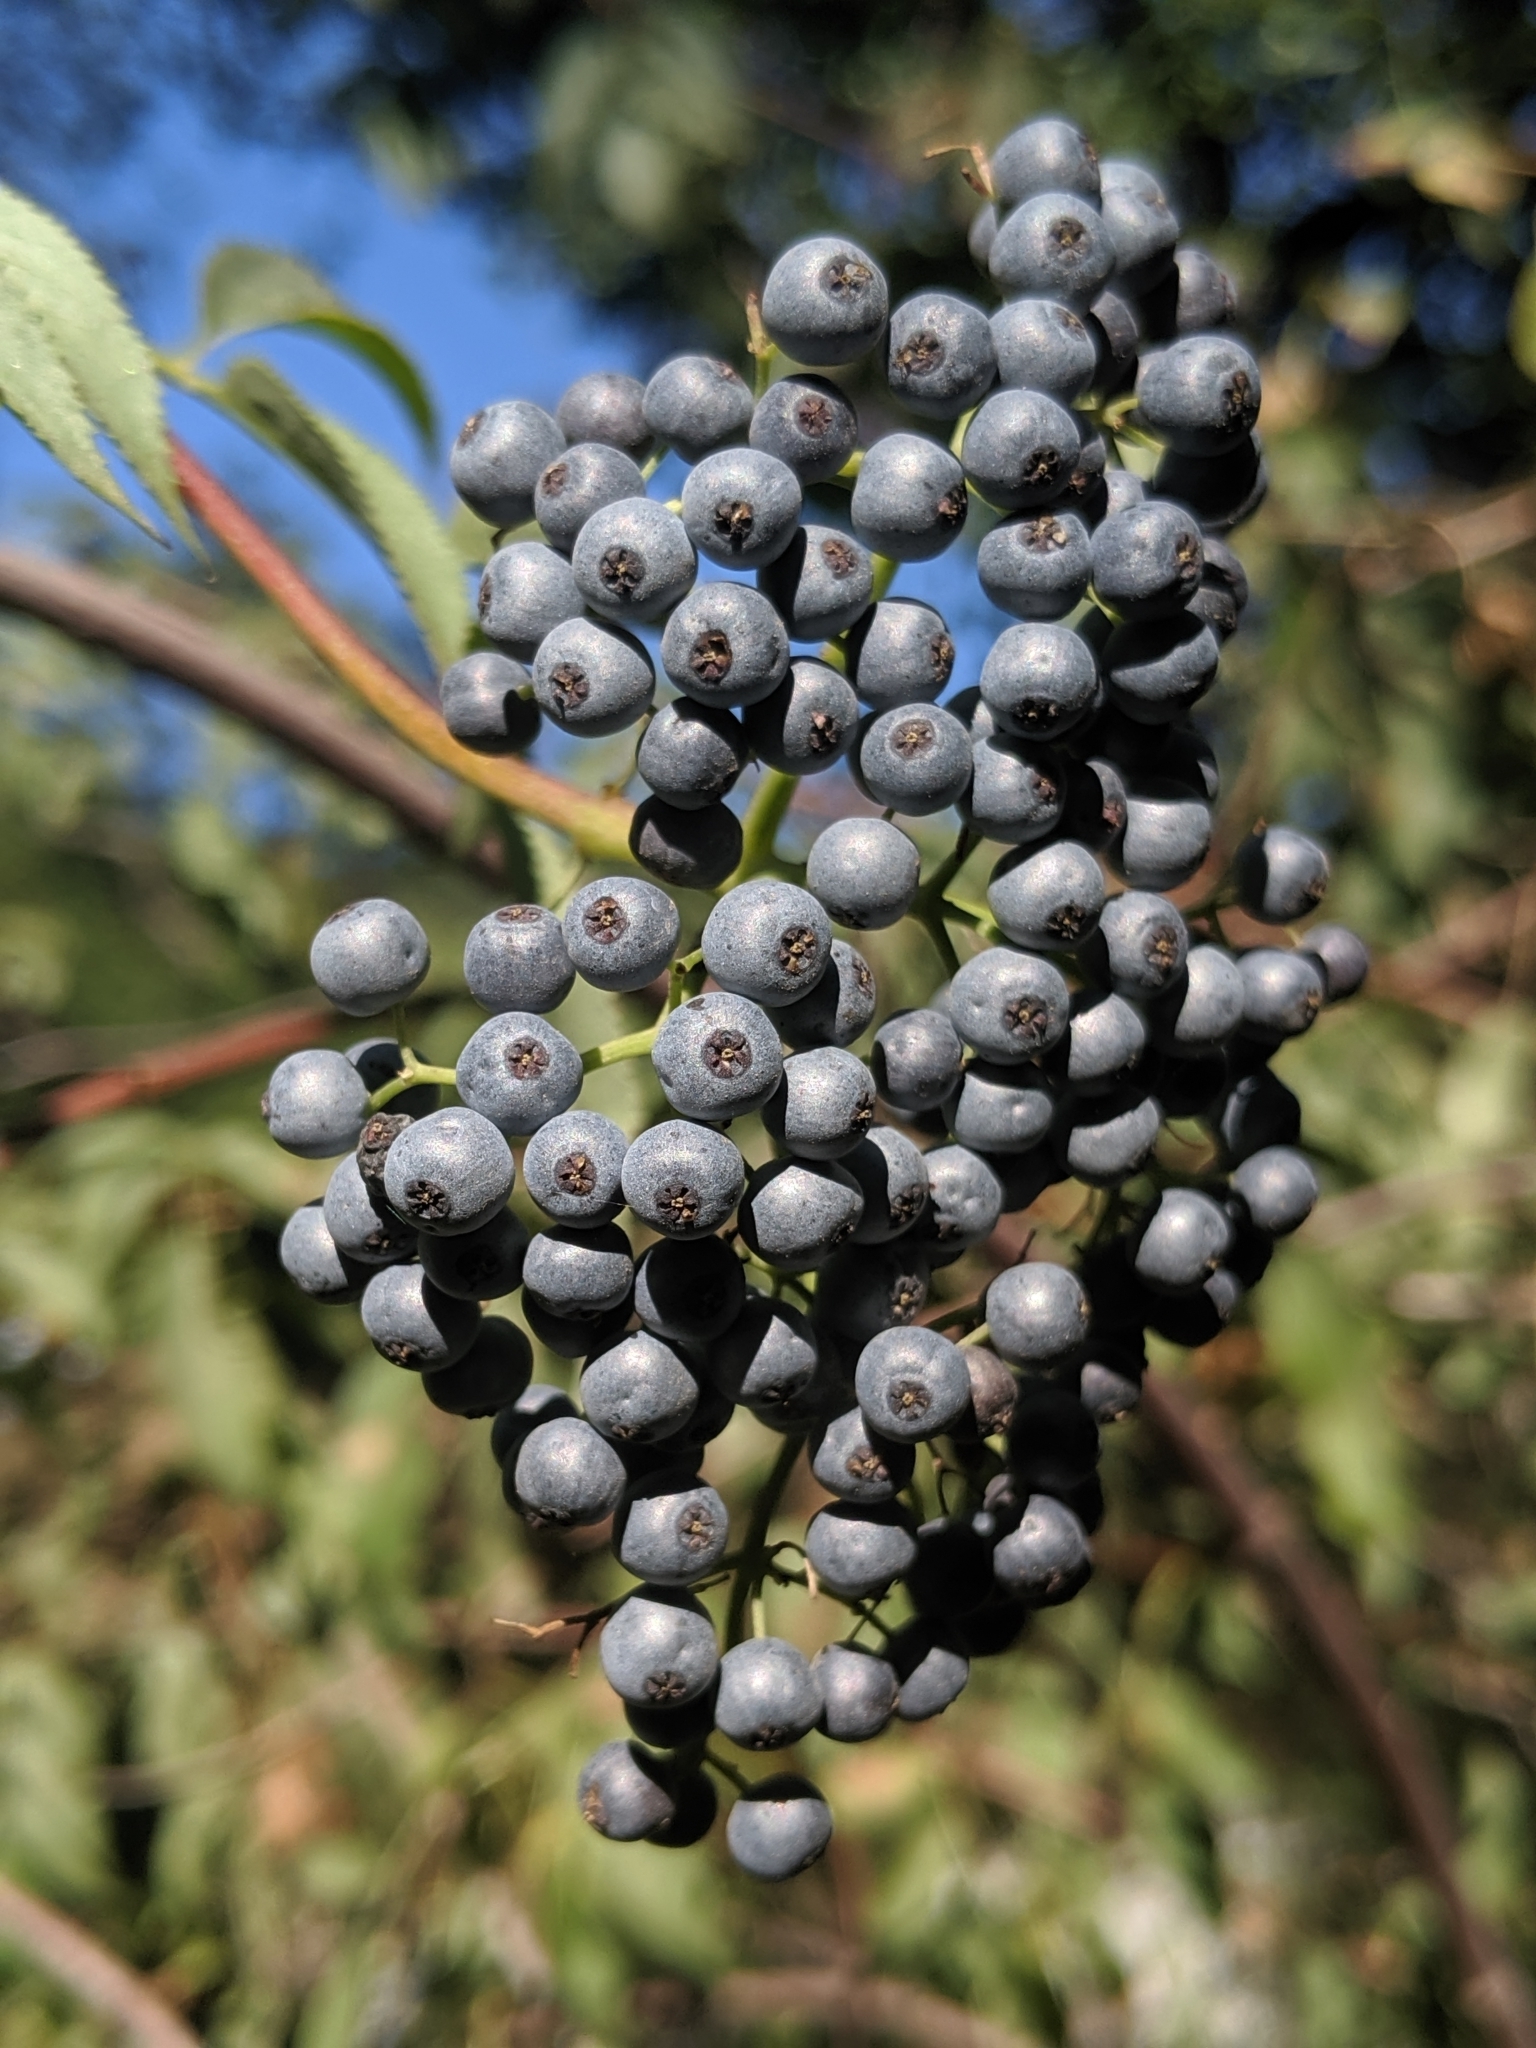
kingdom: Plantae
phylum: Tracheophyta
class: Magnoliopsida
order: Dipsacales
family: Viburnaceae
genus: Sambucus
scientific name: Sambucus cerulea
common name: Blue elder
